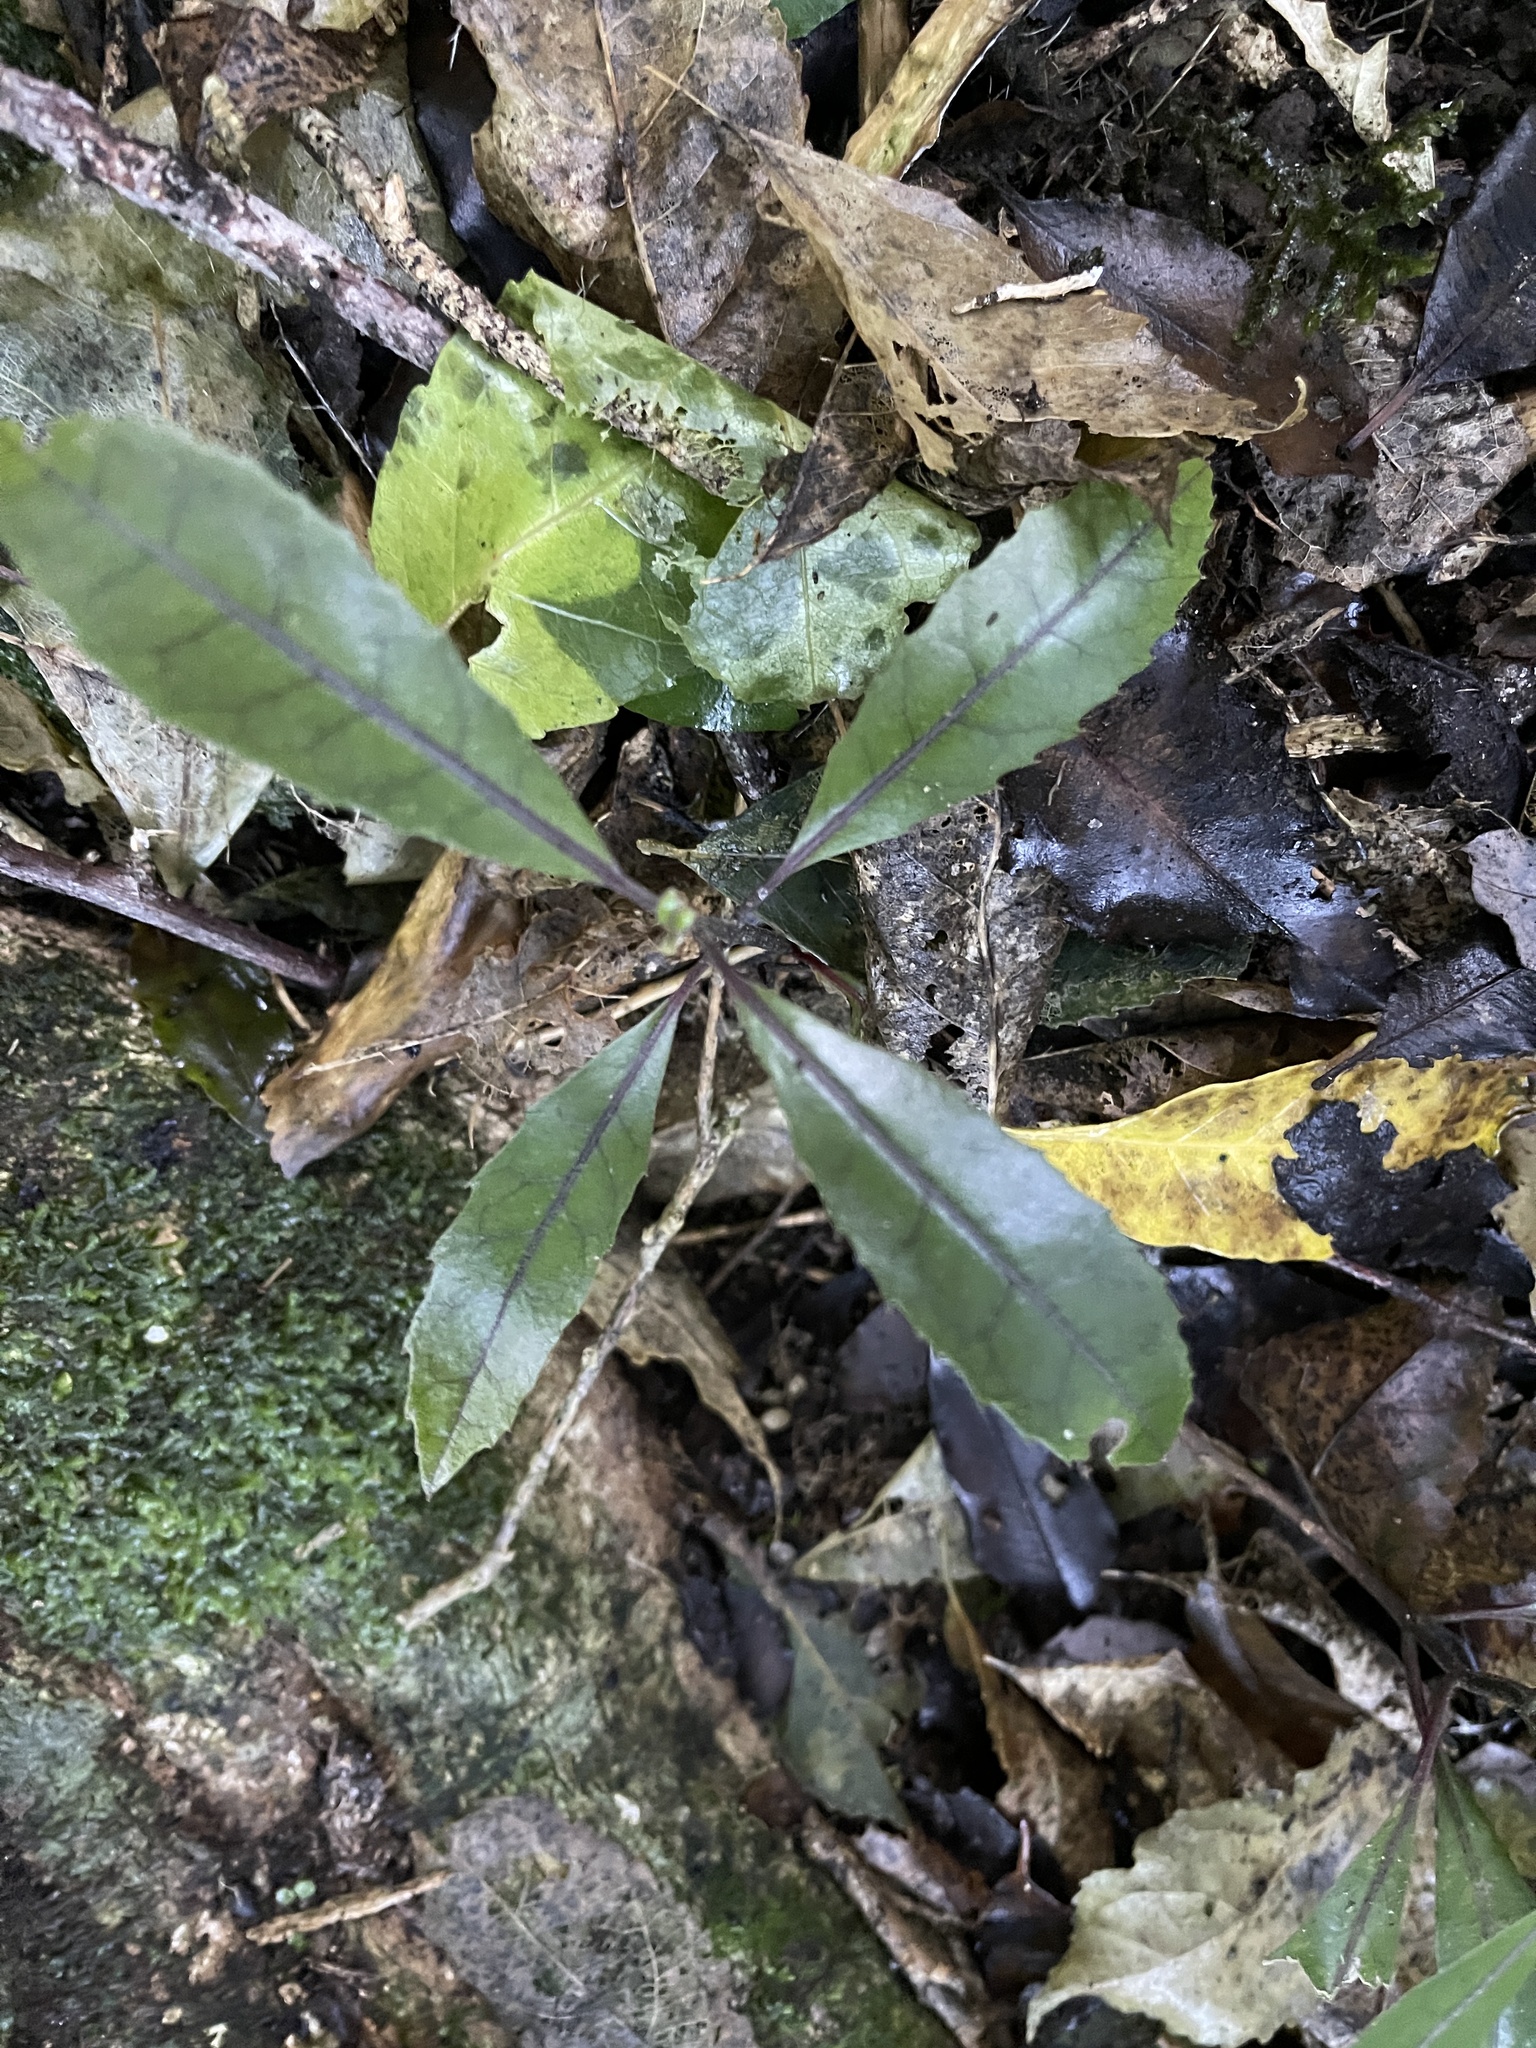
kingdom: Plantae
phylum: Tracheophyta
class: Magnoliopsida
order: Laurales
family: Monimiaceae
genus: Hedycarya
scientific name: Hedycarya arborea
